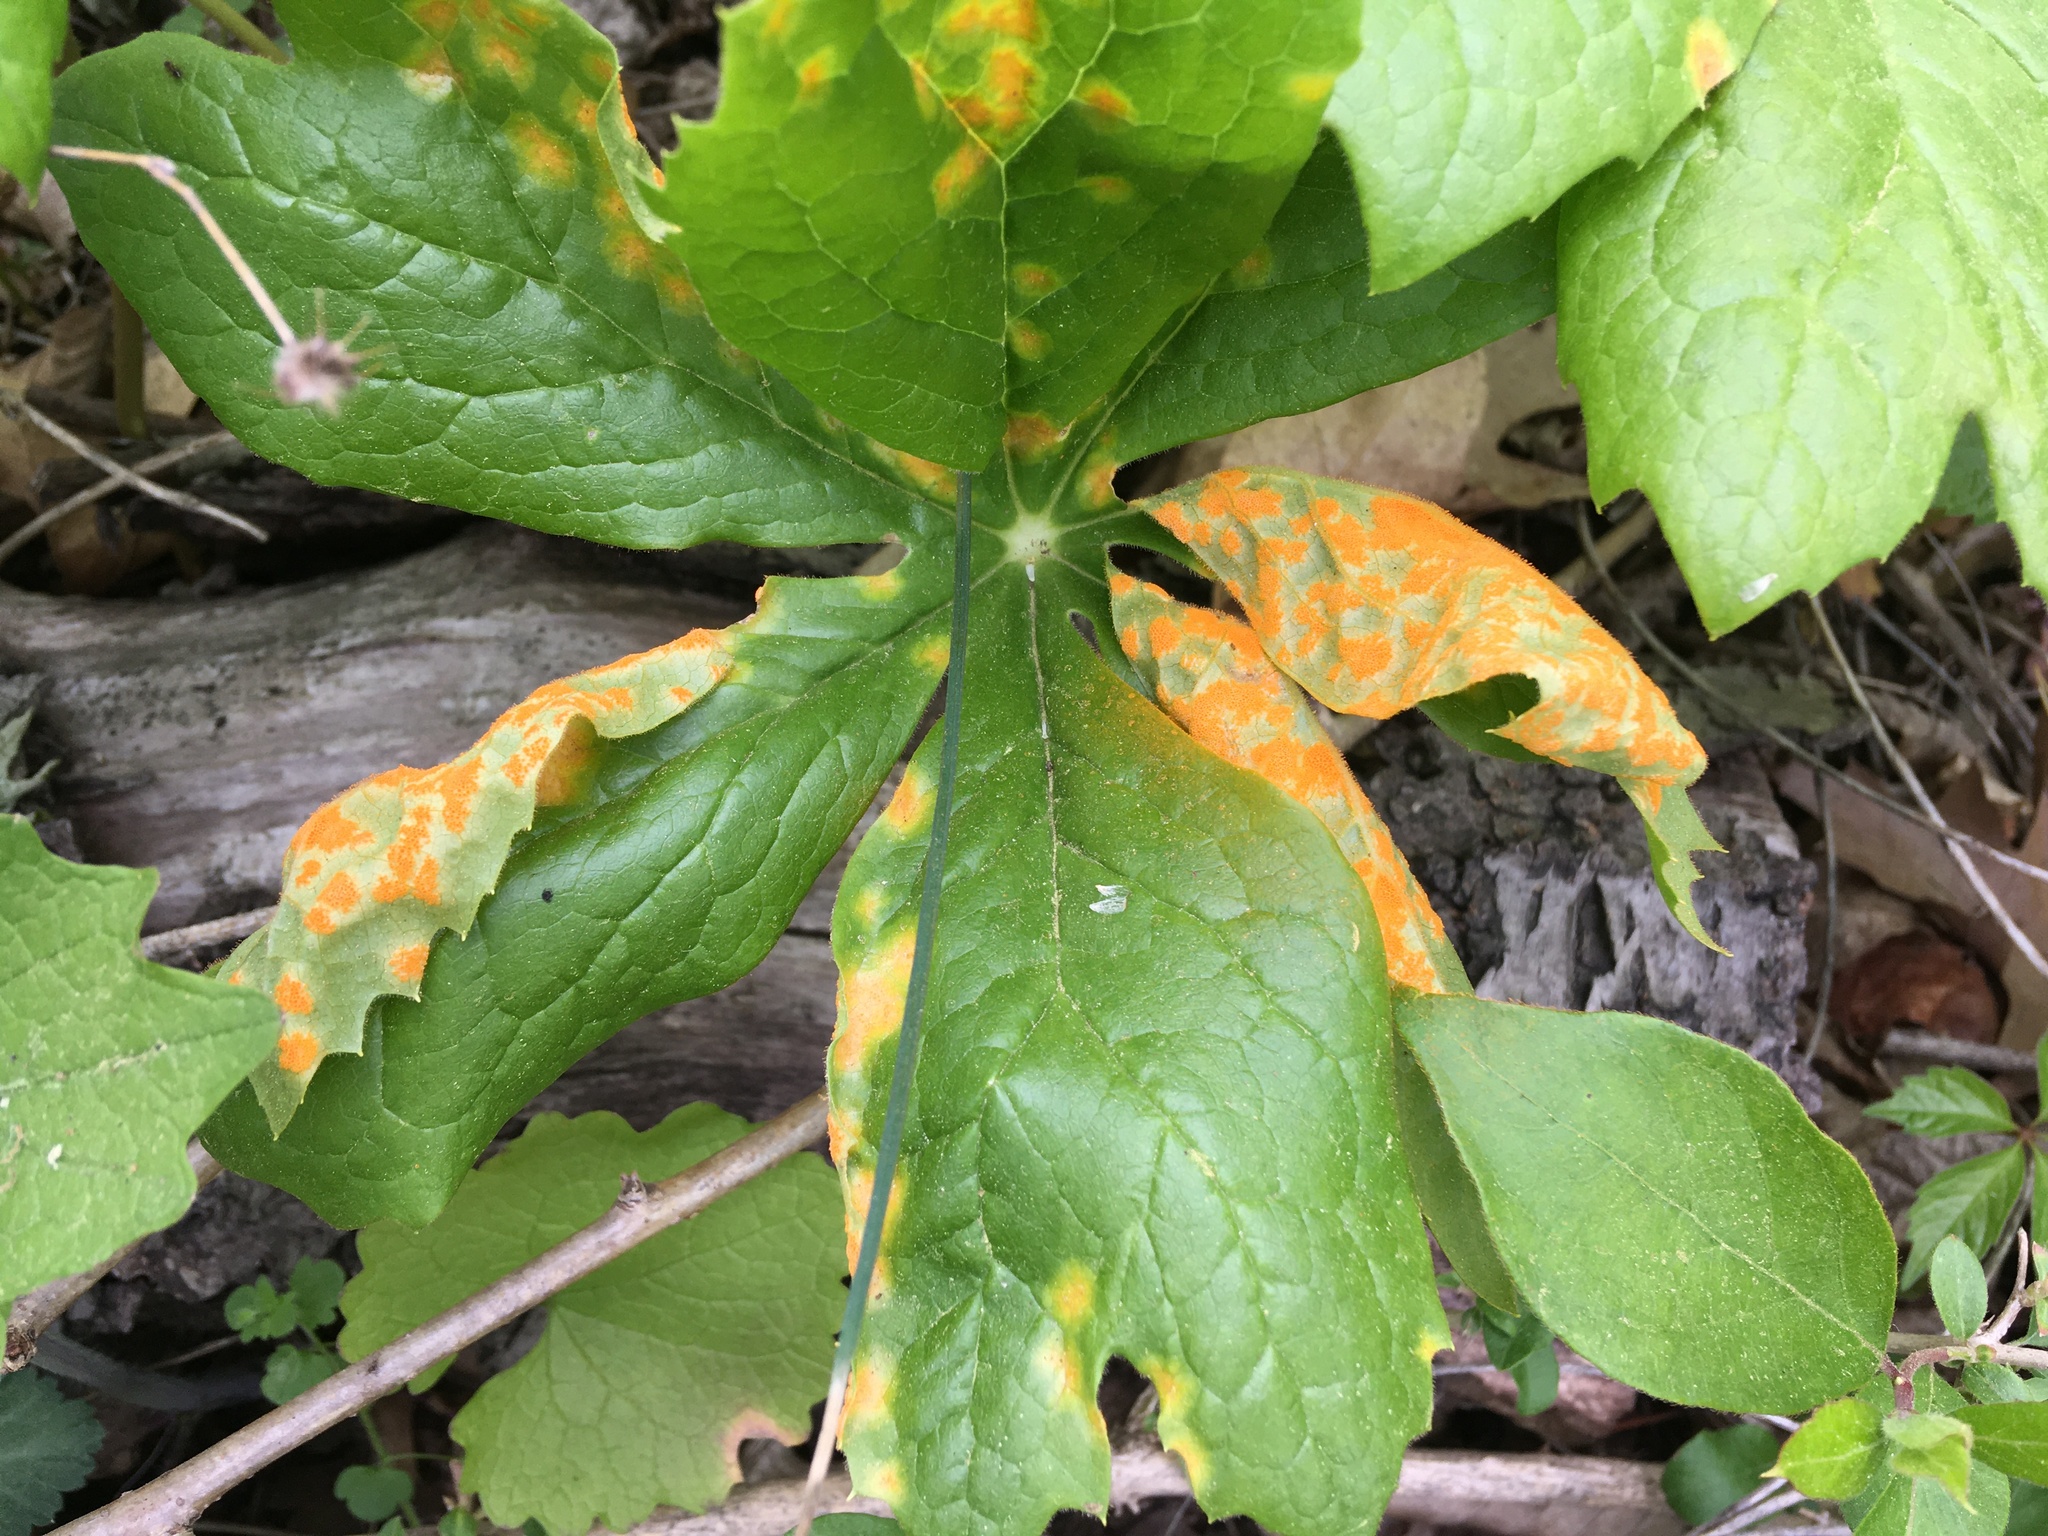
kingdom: Fungi
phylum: Basidiomycota
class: Pucciniomycetes
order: Pucciniales
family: Pucciniaceae
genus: Puccinia
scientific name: Puccinia podophylli
